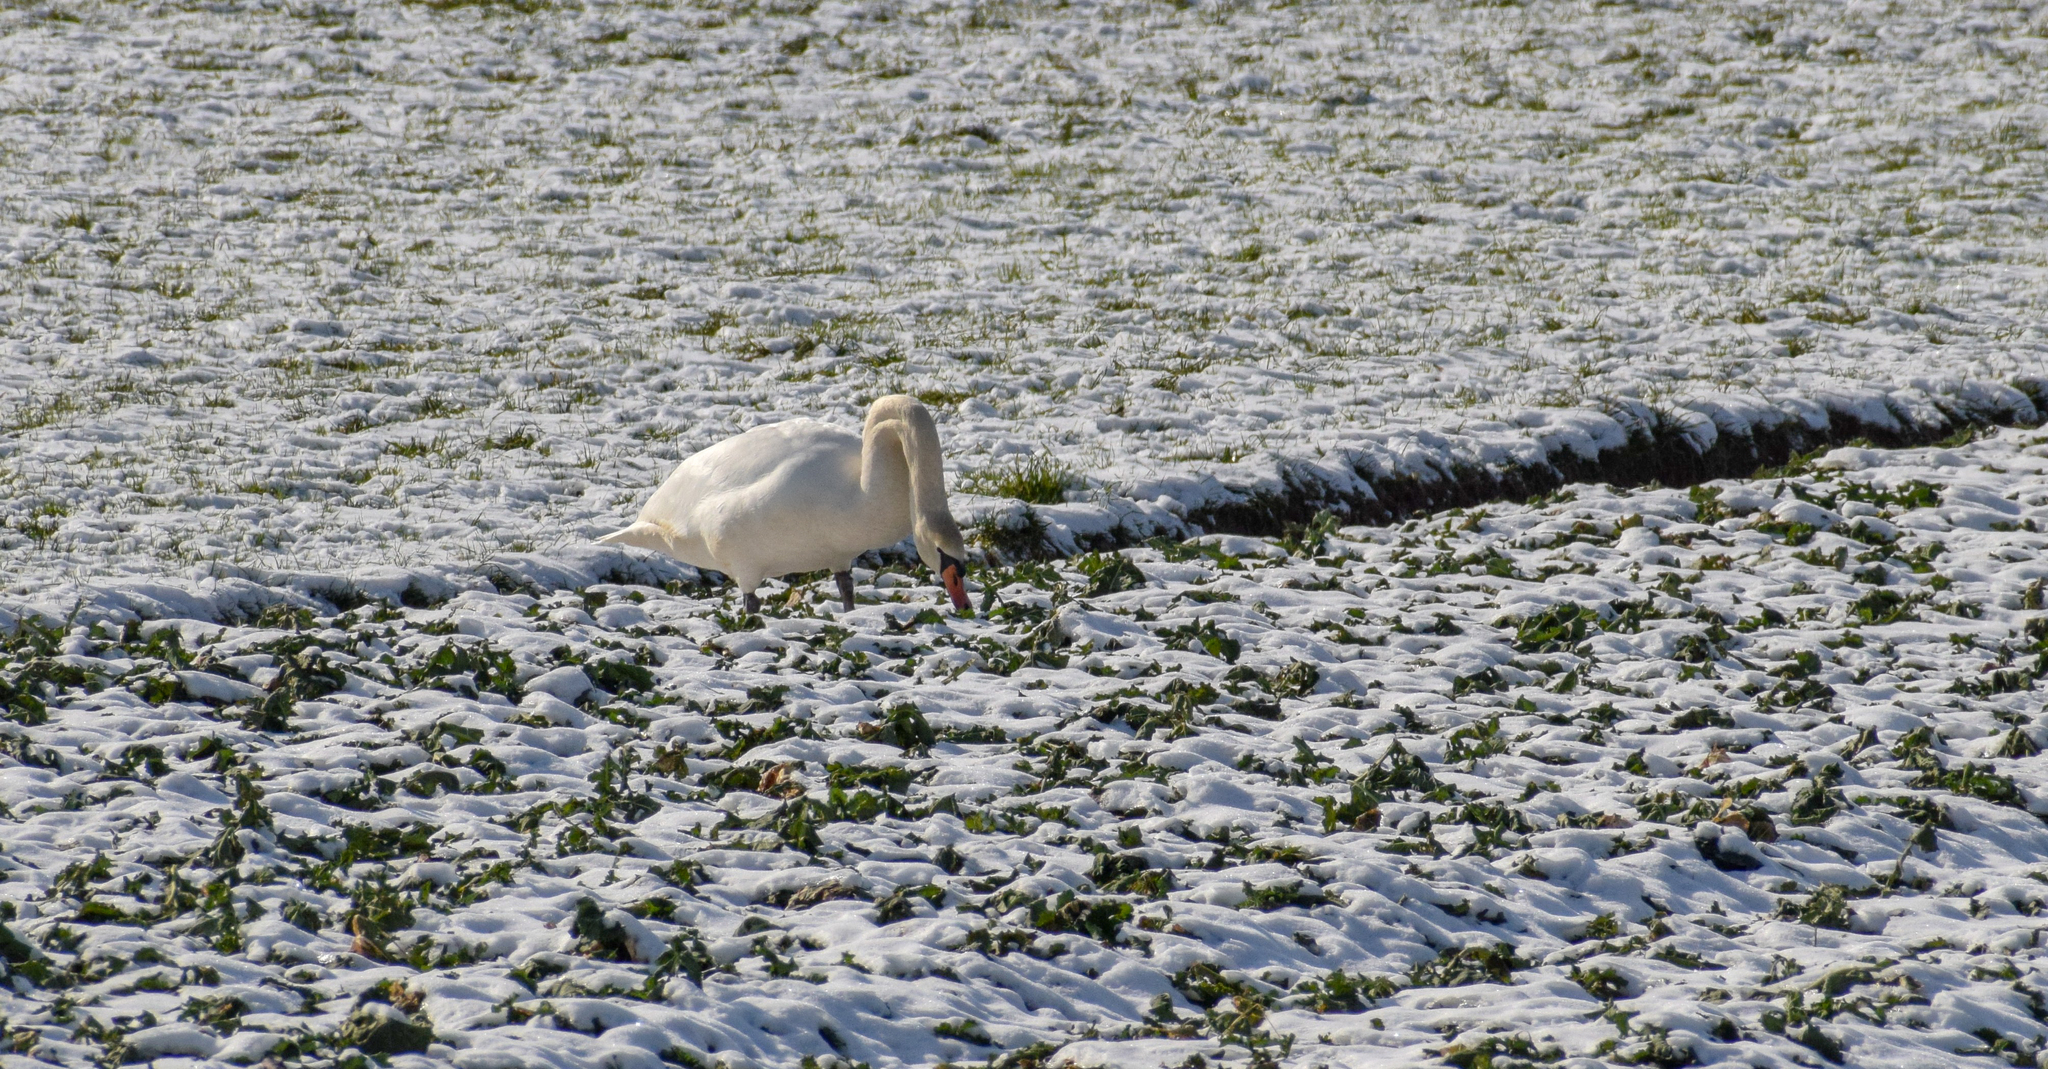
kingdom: Animalia
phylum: Chordata
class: Aves
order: Anseriformes
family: Anatidae
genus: Cygnus
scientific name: Cygnus olor
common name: Mute swan
